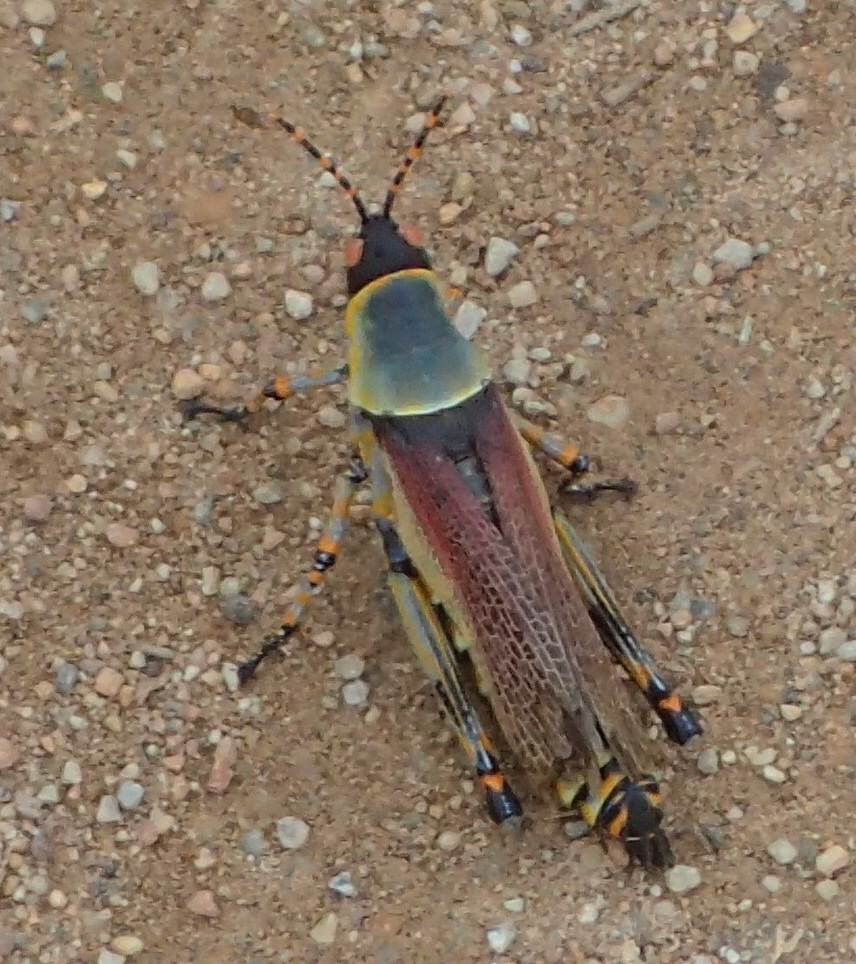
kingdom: Animalia
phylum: Arthropoda
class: Insecta
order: Orthoptera
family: Pyrgomorphidae
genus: Zonocerus
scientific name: Zonocerus elegans
